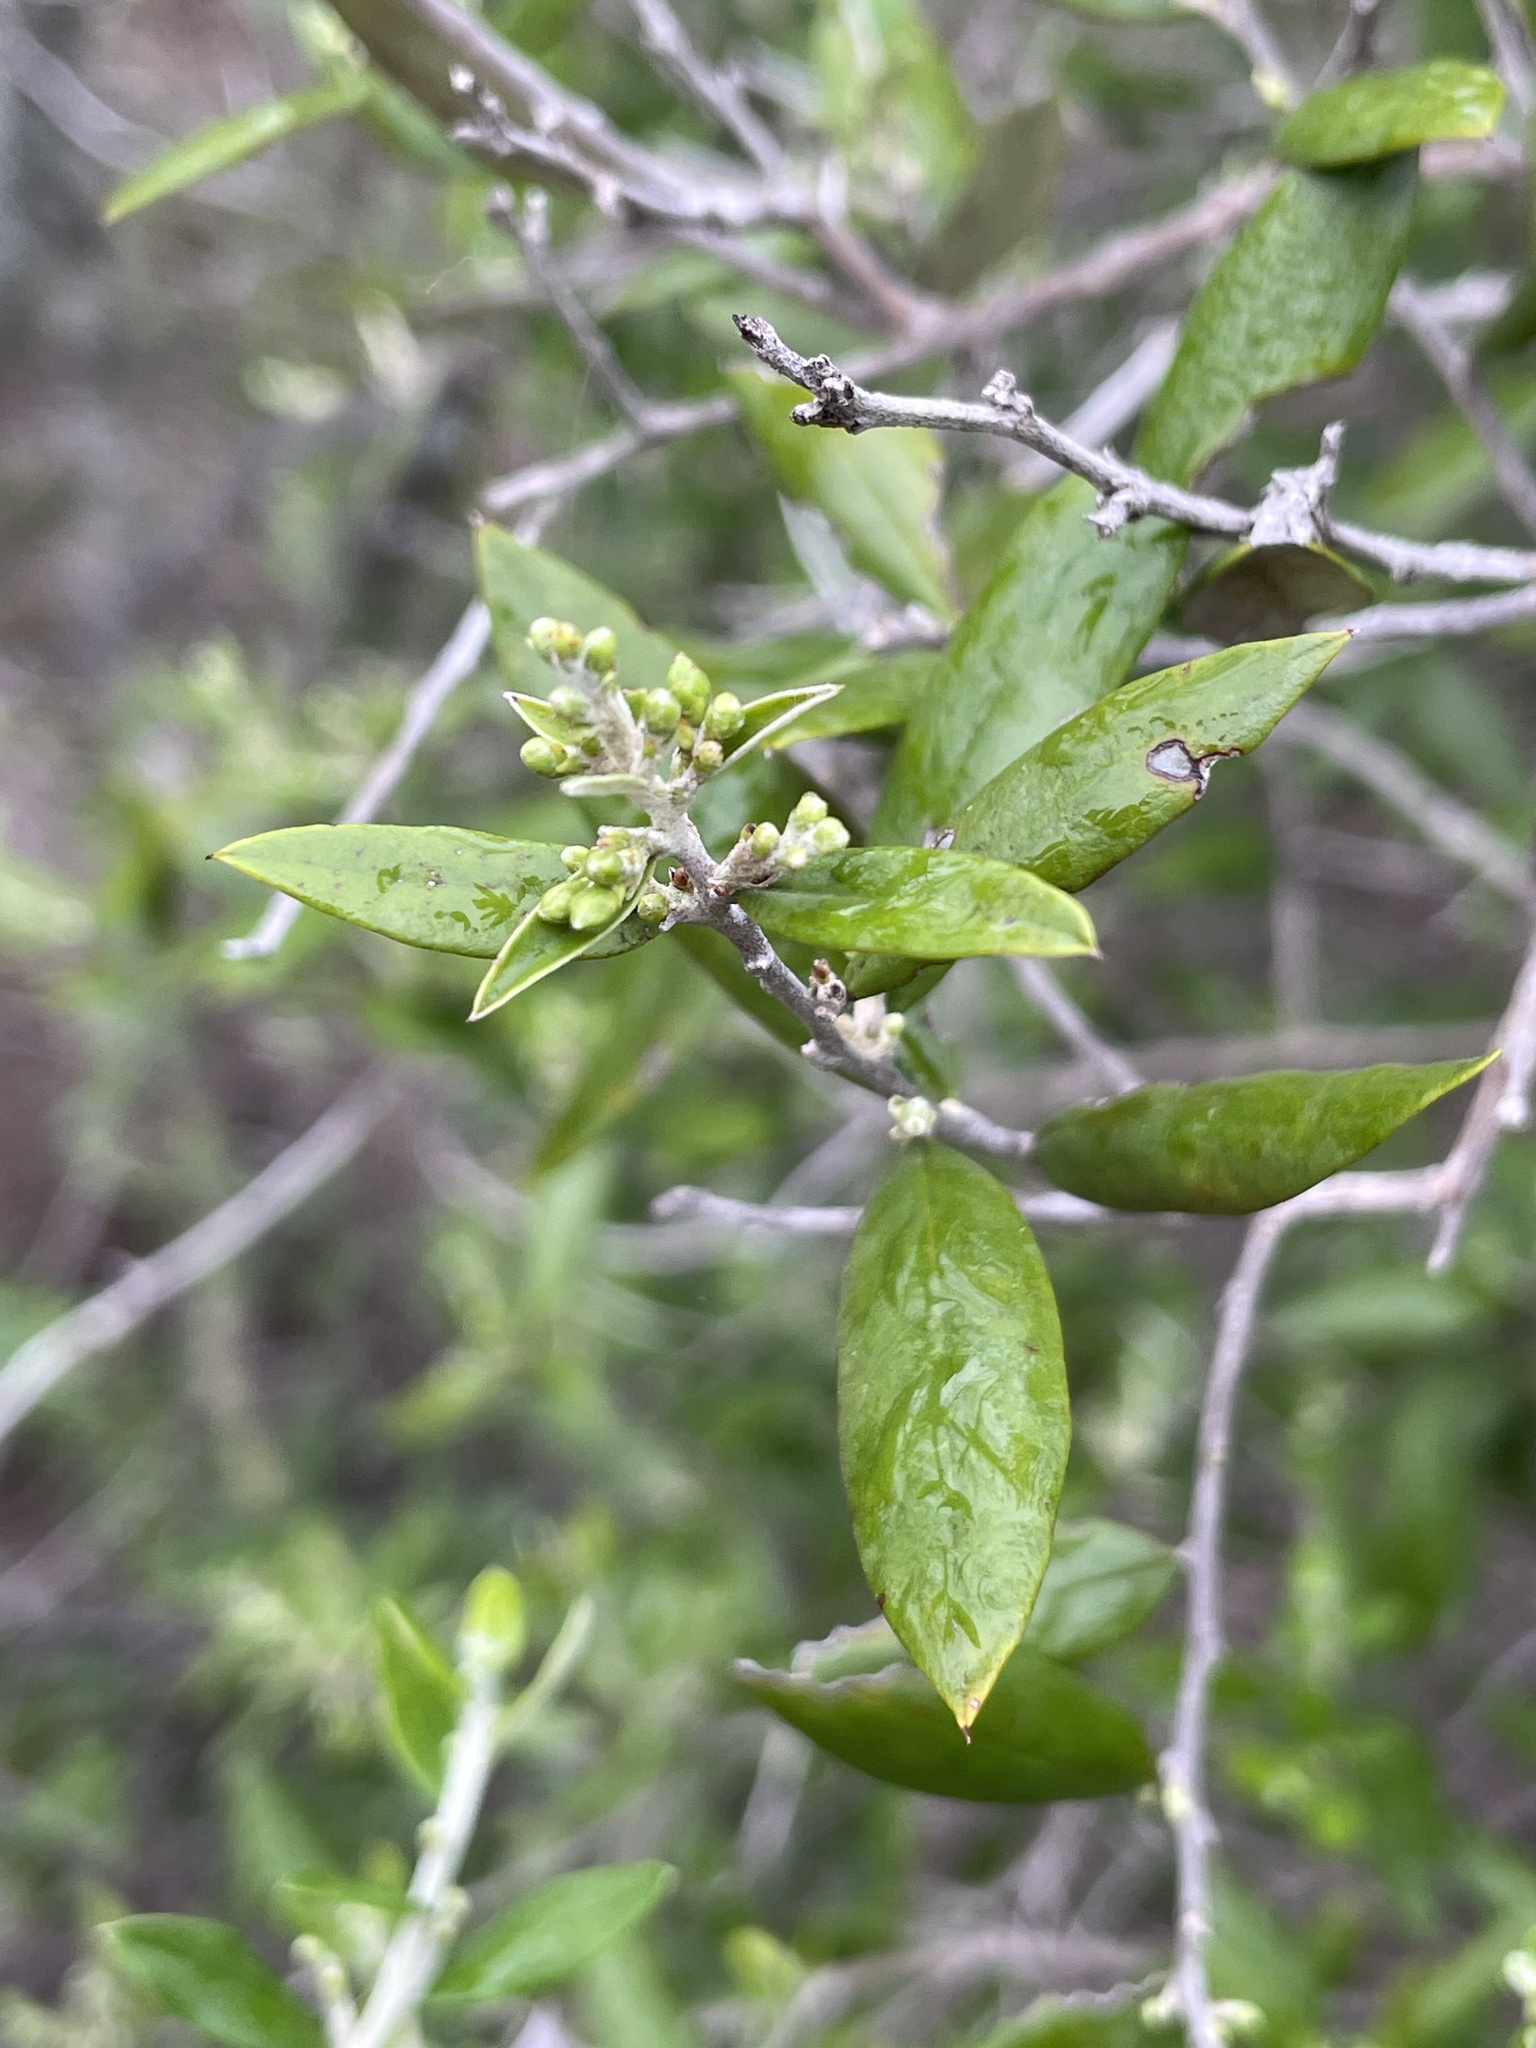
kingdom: Plantae
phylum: Tracheophyta
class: Magnoliopsida
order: Asterales
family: Asteraceae
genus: Nahuatlea
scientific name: Nahuatlea hypoleuca
